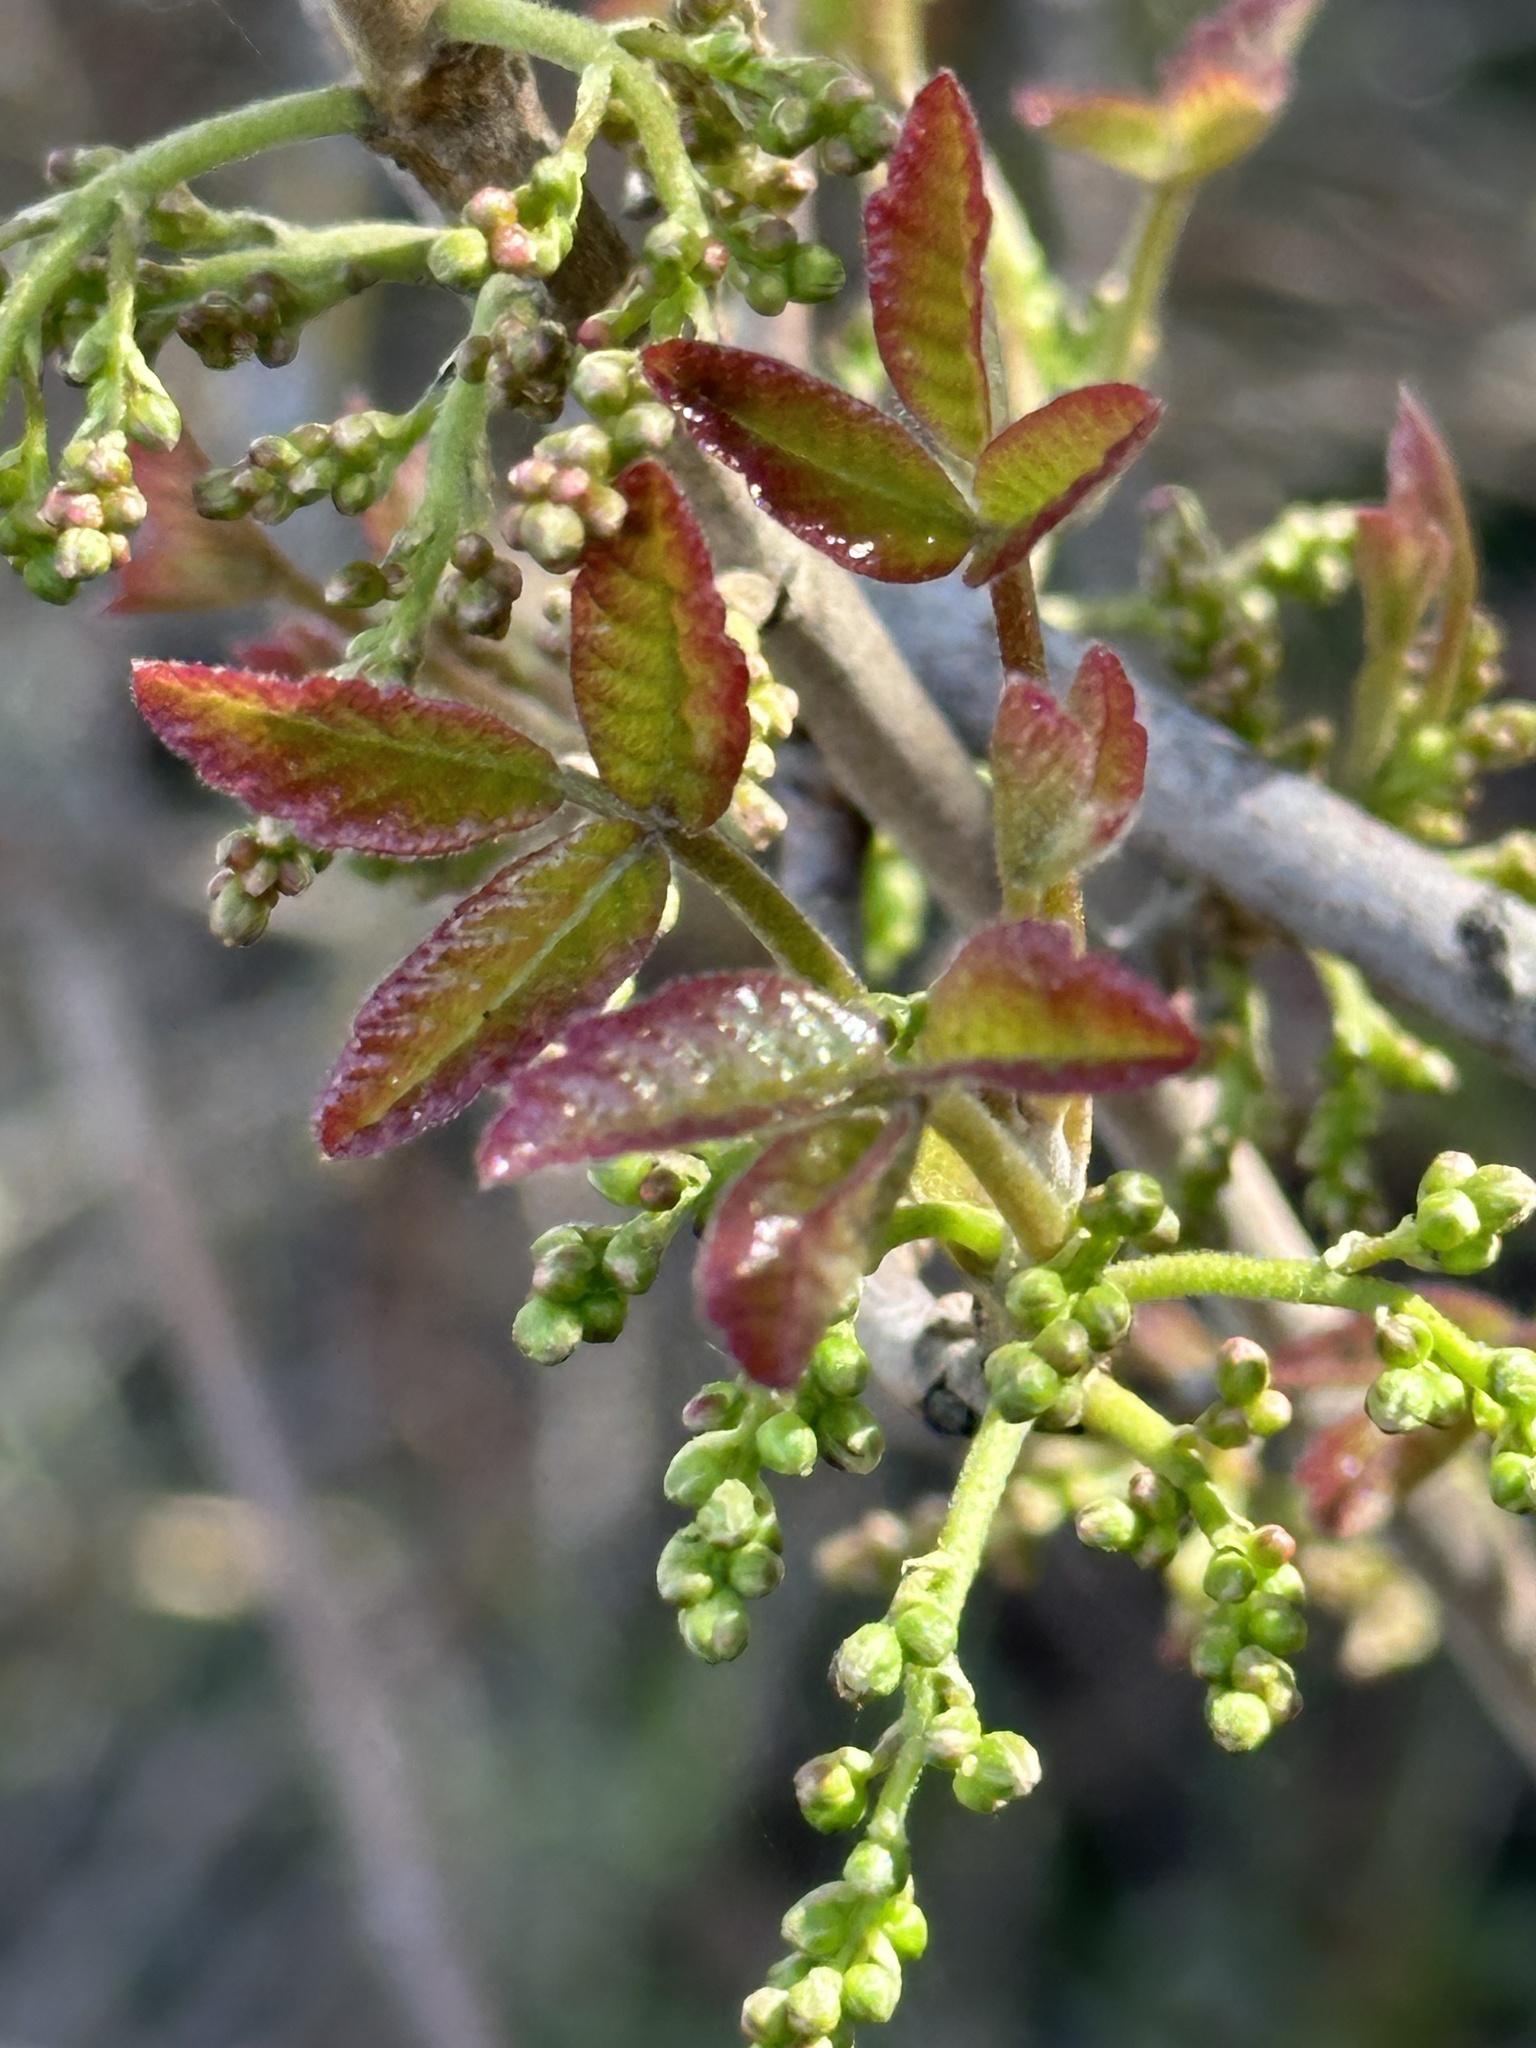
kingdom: Plantae
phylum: Tracheophyta
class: Magnoliopsida
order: Sapindales
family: Anacardiaceae
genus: Toxicodendron
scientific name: Toxicodendron diversilobum
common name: Pacific poison-oak
